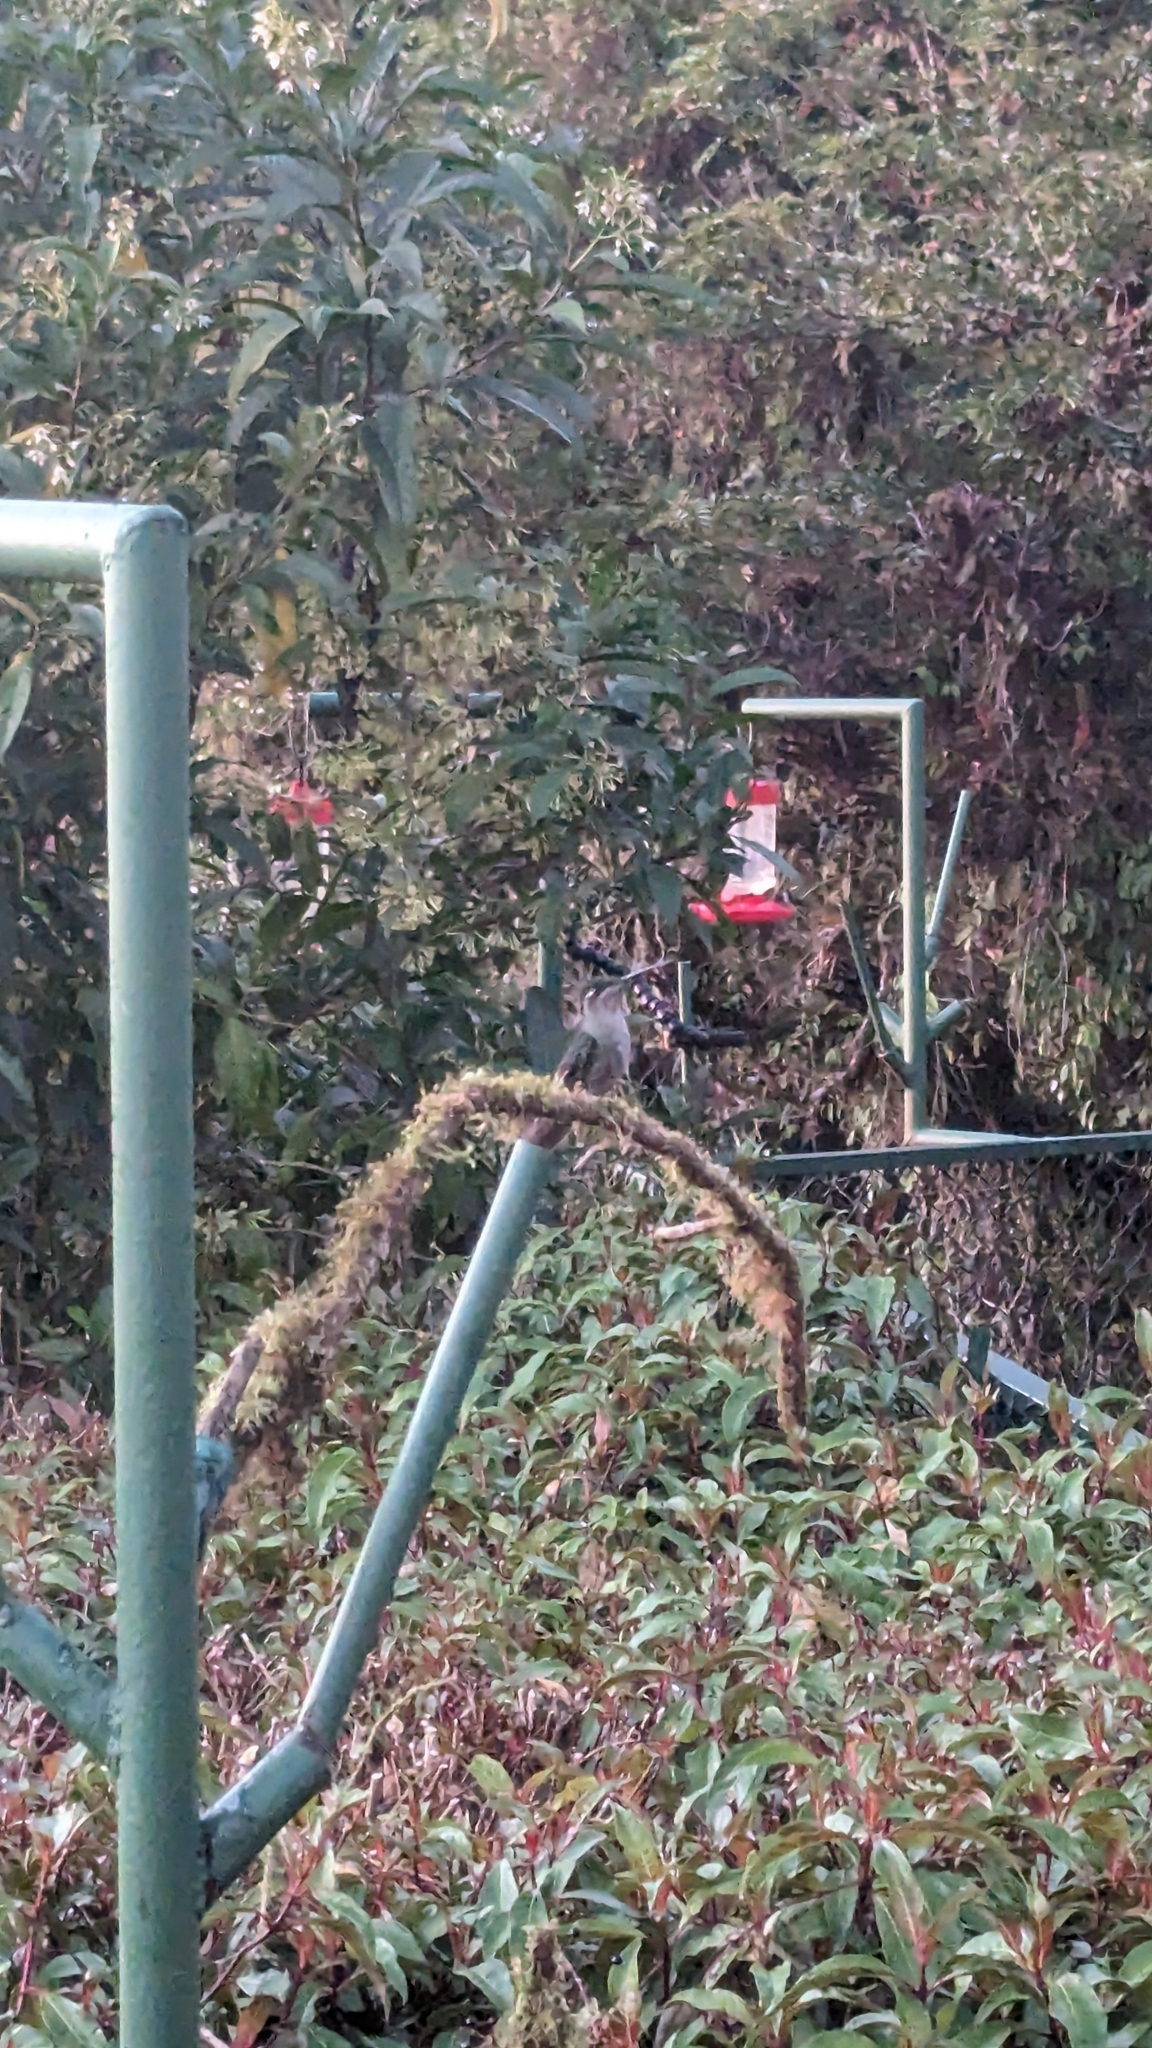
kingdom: Animalia
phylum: Chordata
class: Aves
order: Apodiformes
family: Trochilidae
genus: Eugenes
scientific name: Eugenes spectabilis
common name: Talamanca hummingbird
